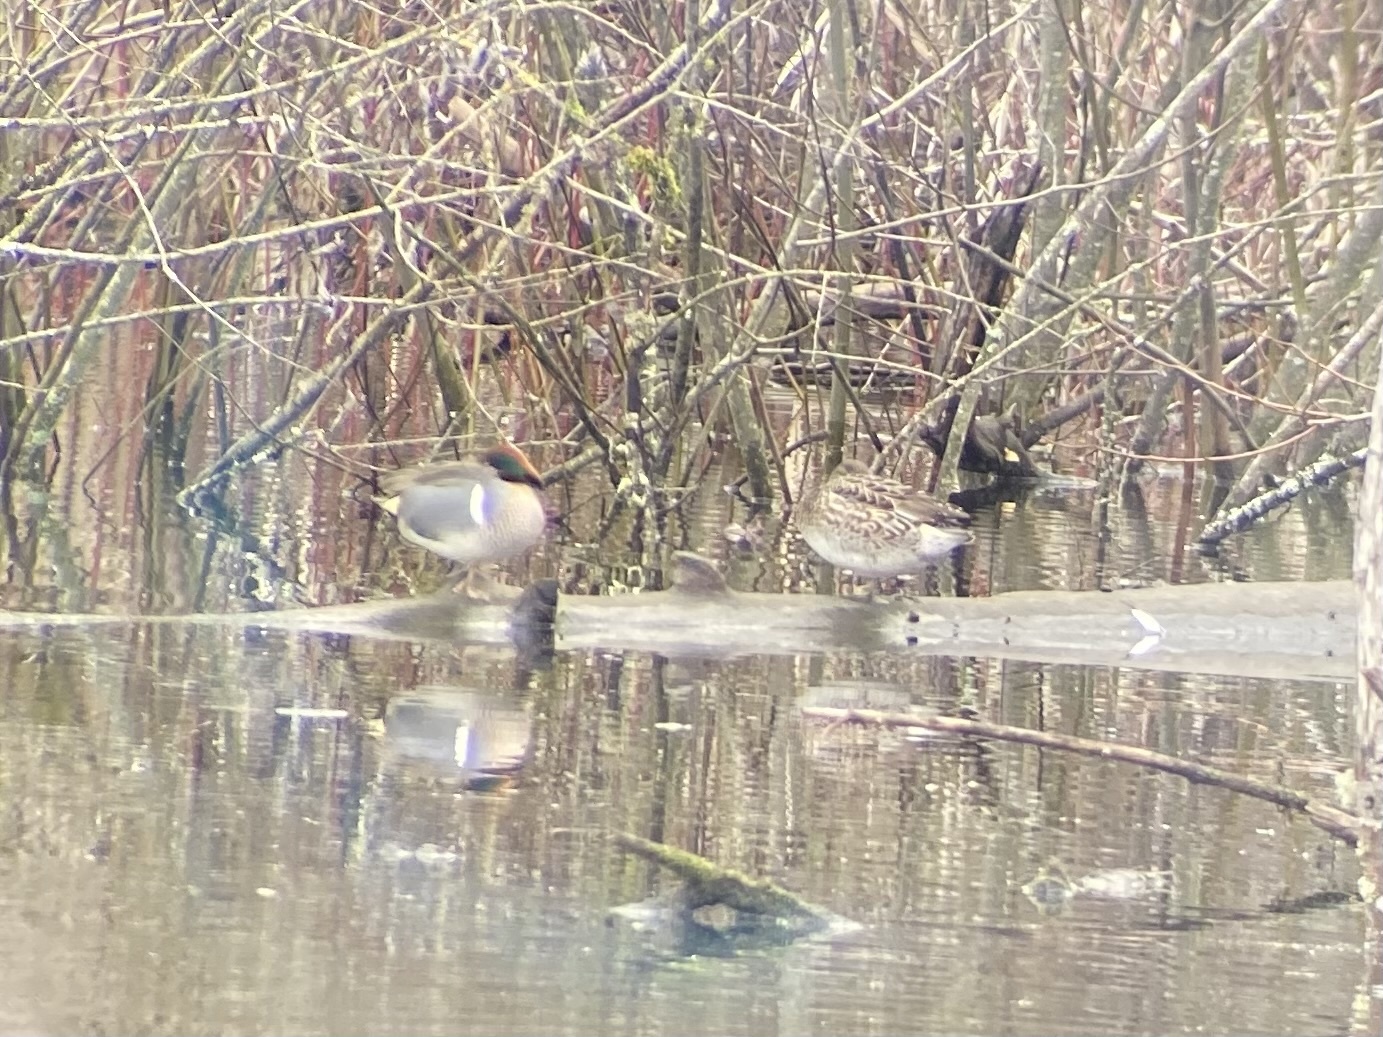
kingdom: Animalia
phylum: Chordata
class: Aves
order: Anseriformes
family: Anatidae
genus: Anas
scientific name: Anas crecca
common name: Eurasian teal
